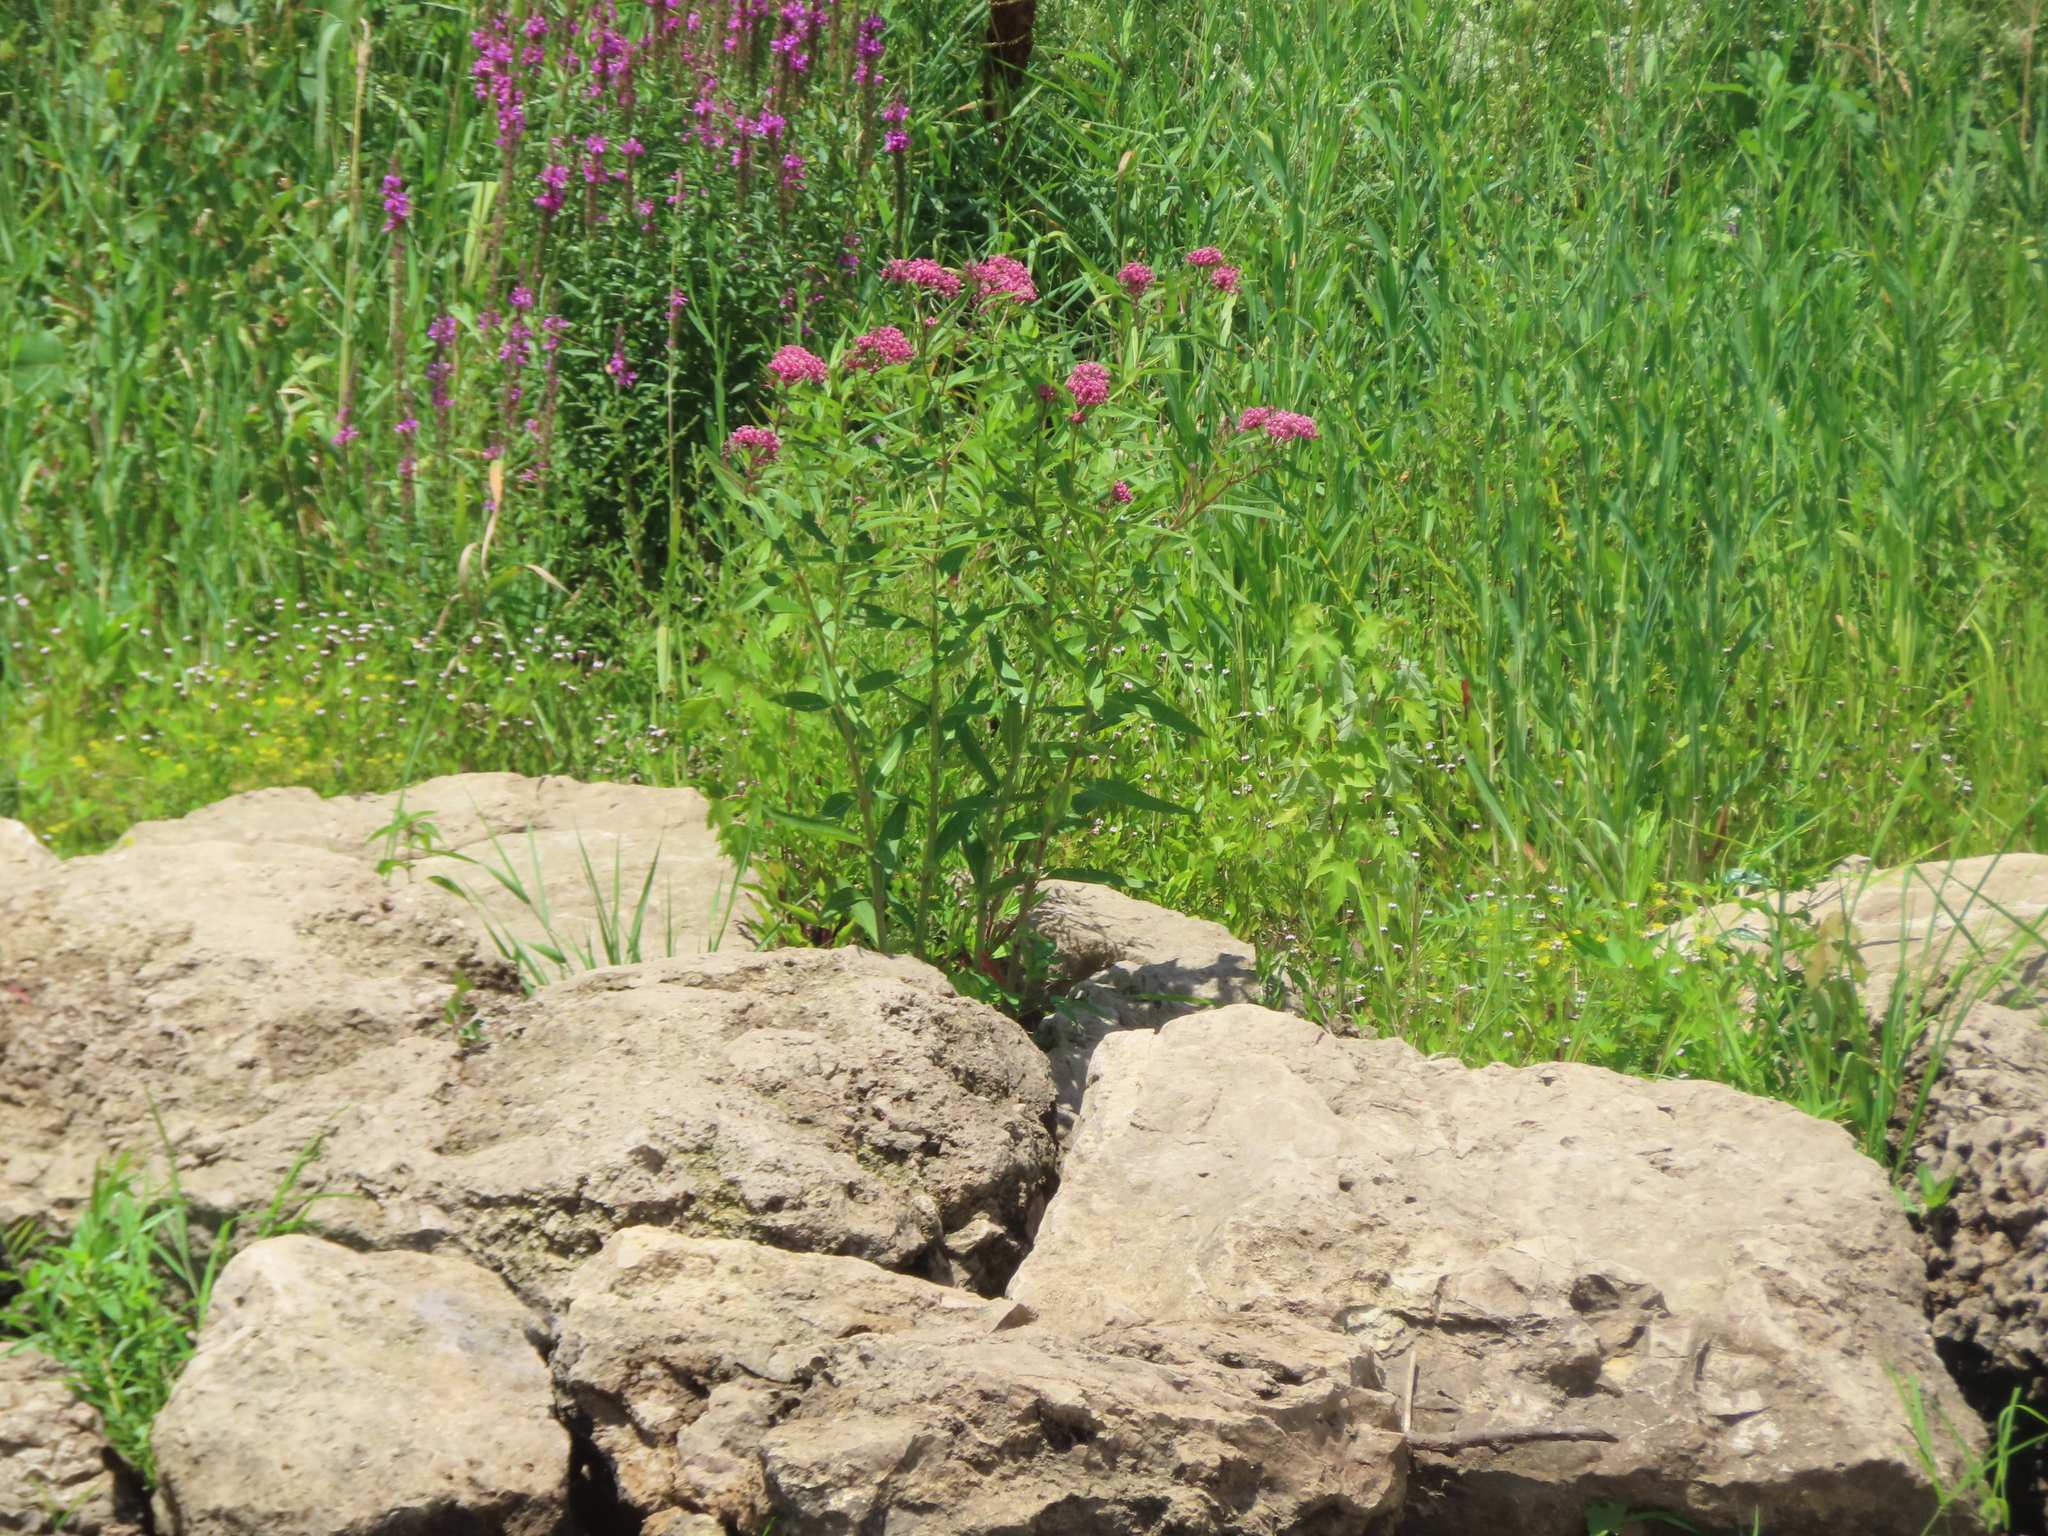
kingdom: Plantae
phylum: Tracheophyta
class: Magnoliopsida
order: Gentianales
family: Apocynaceae
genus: Asclepias
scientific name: Asclepias incarnata
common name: Swamp milkweed
